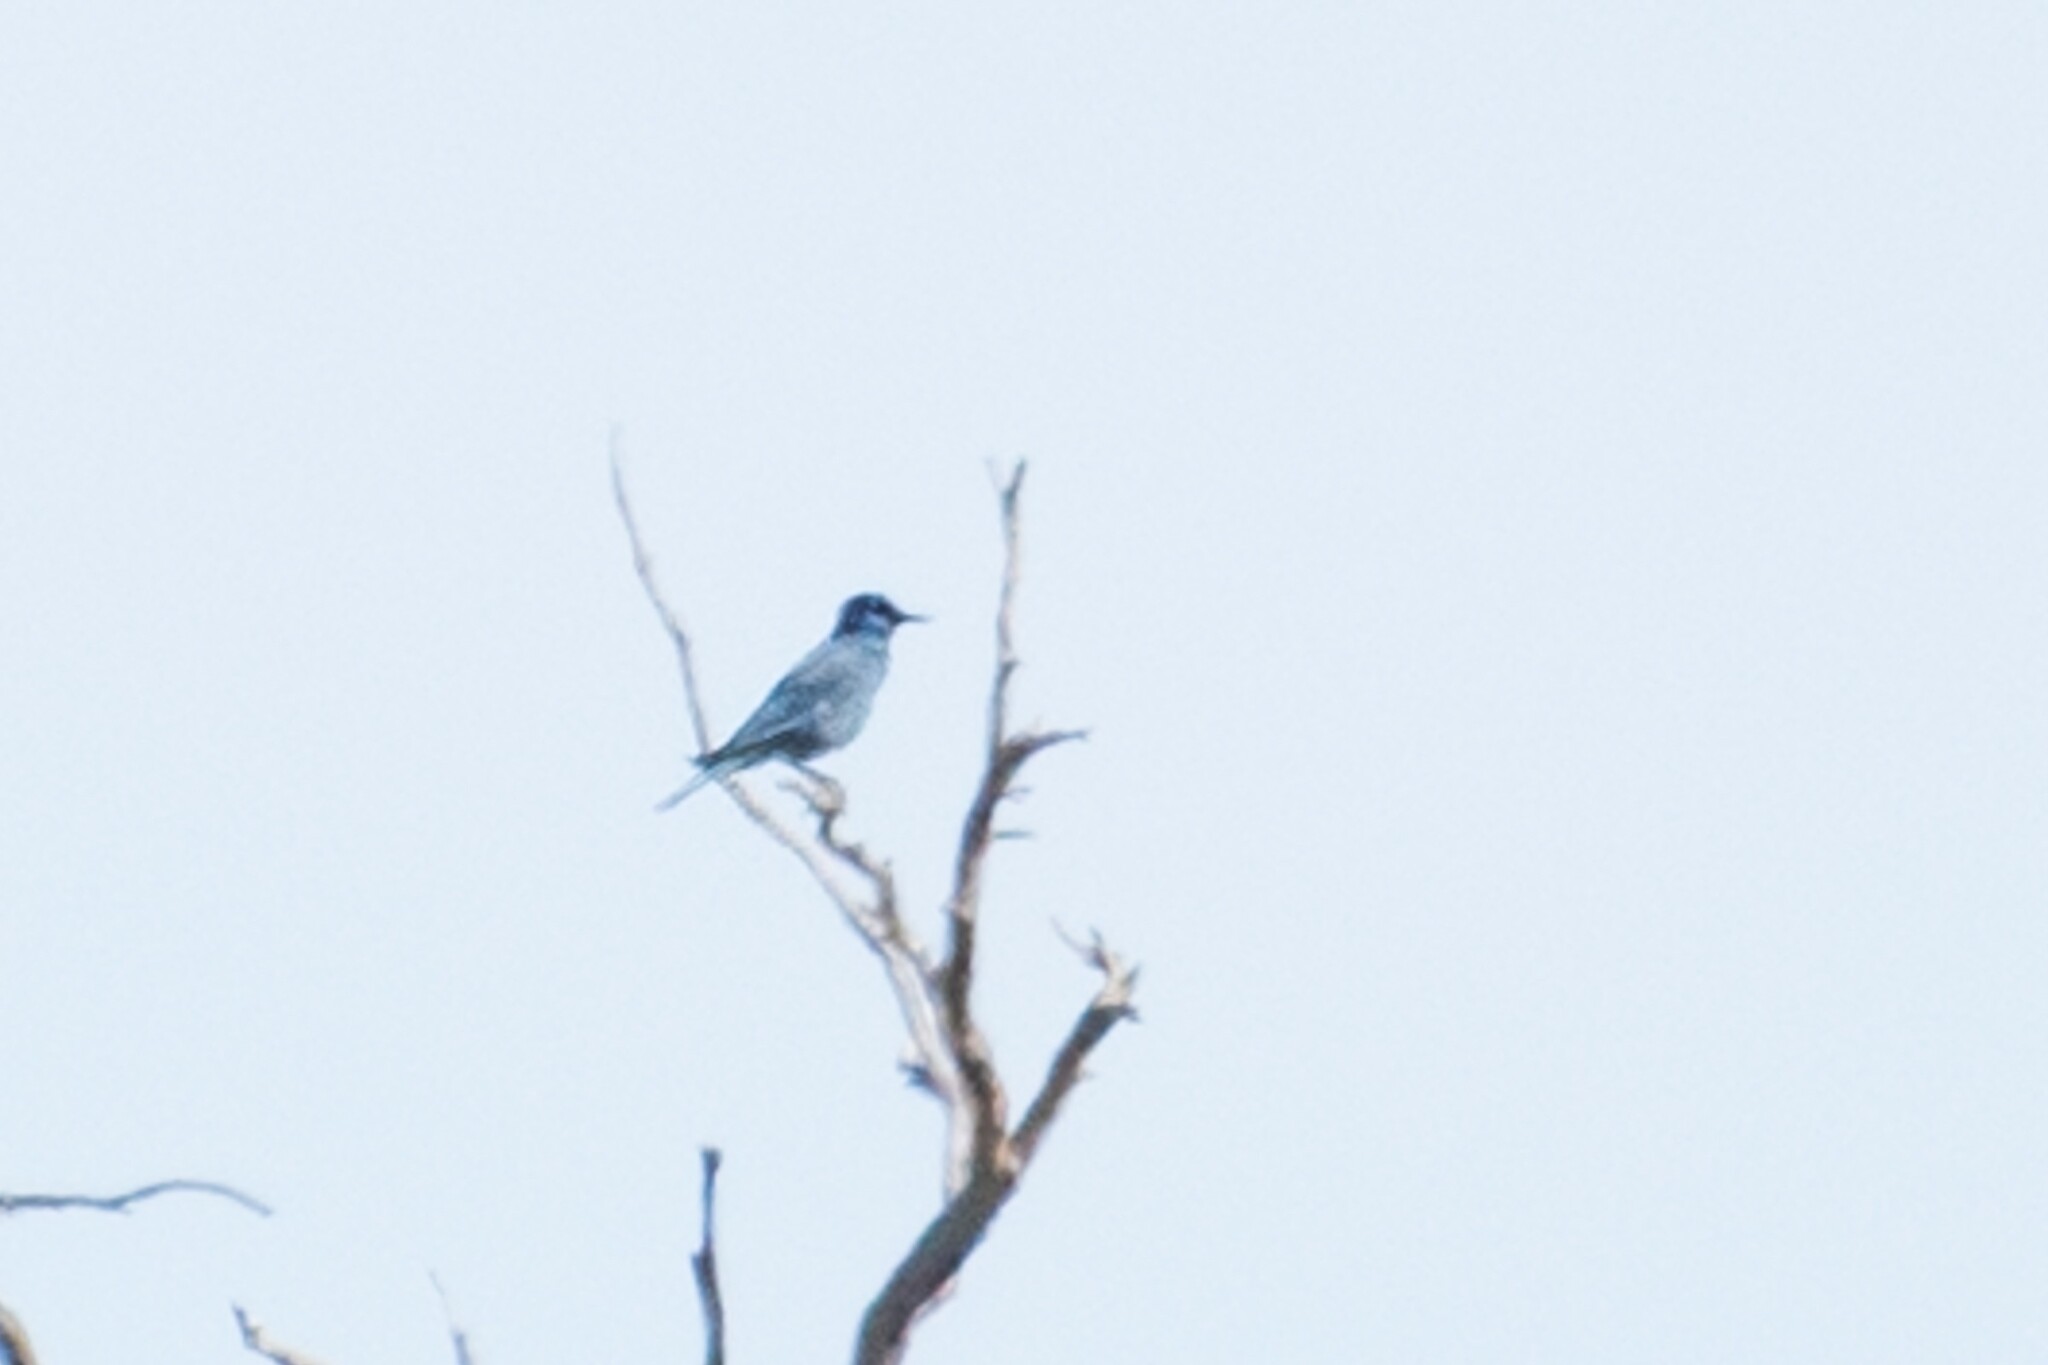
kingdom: Animalia
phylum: Chordata
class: Aves
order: Passeriformes
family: Corvidae
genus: Gymnorhinus
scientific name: Gymnorhinus cyanocephalus
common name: Pinyon jay
